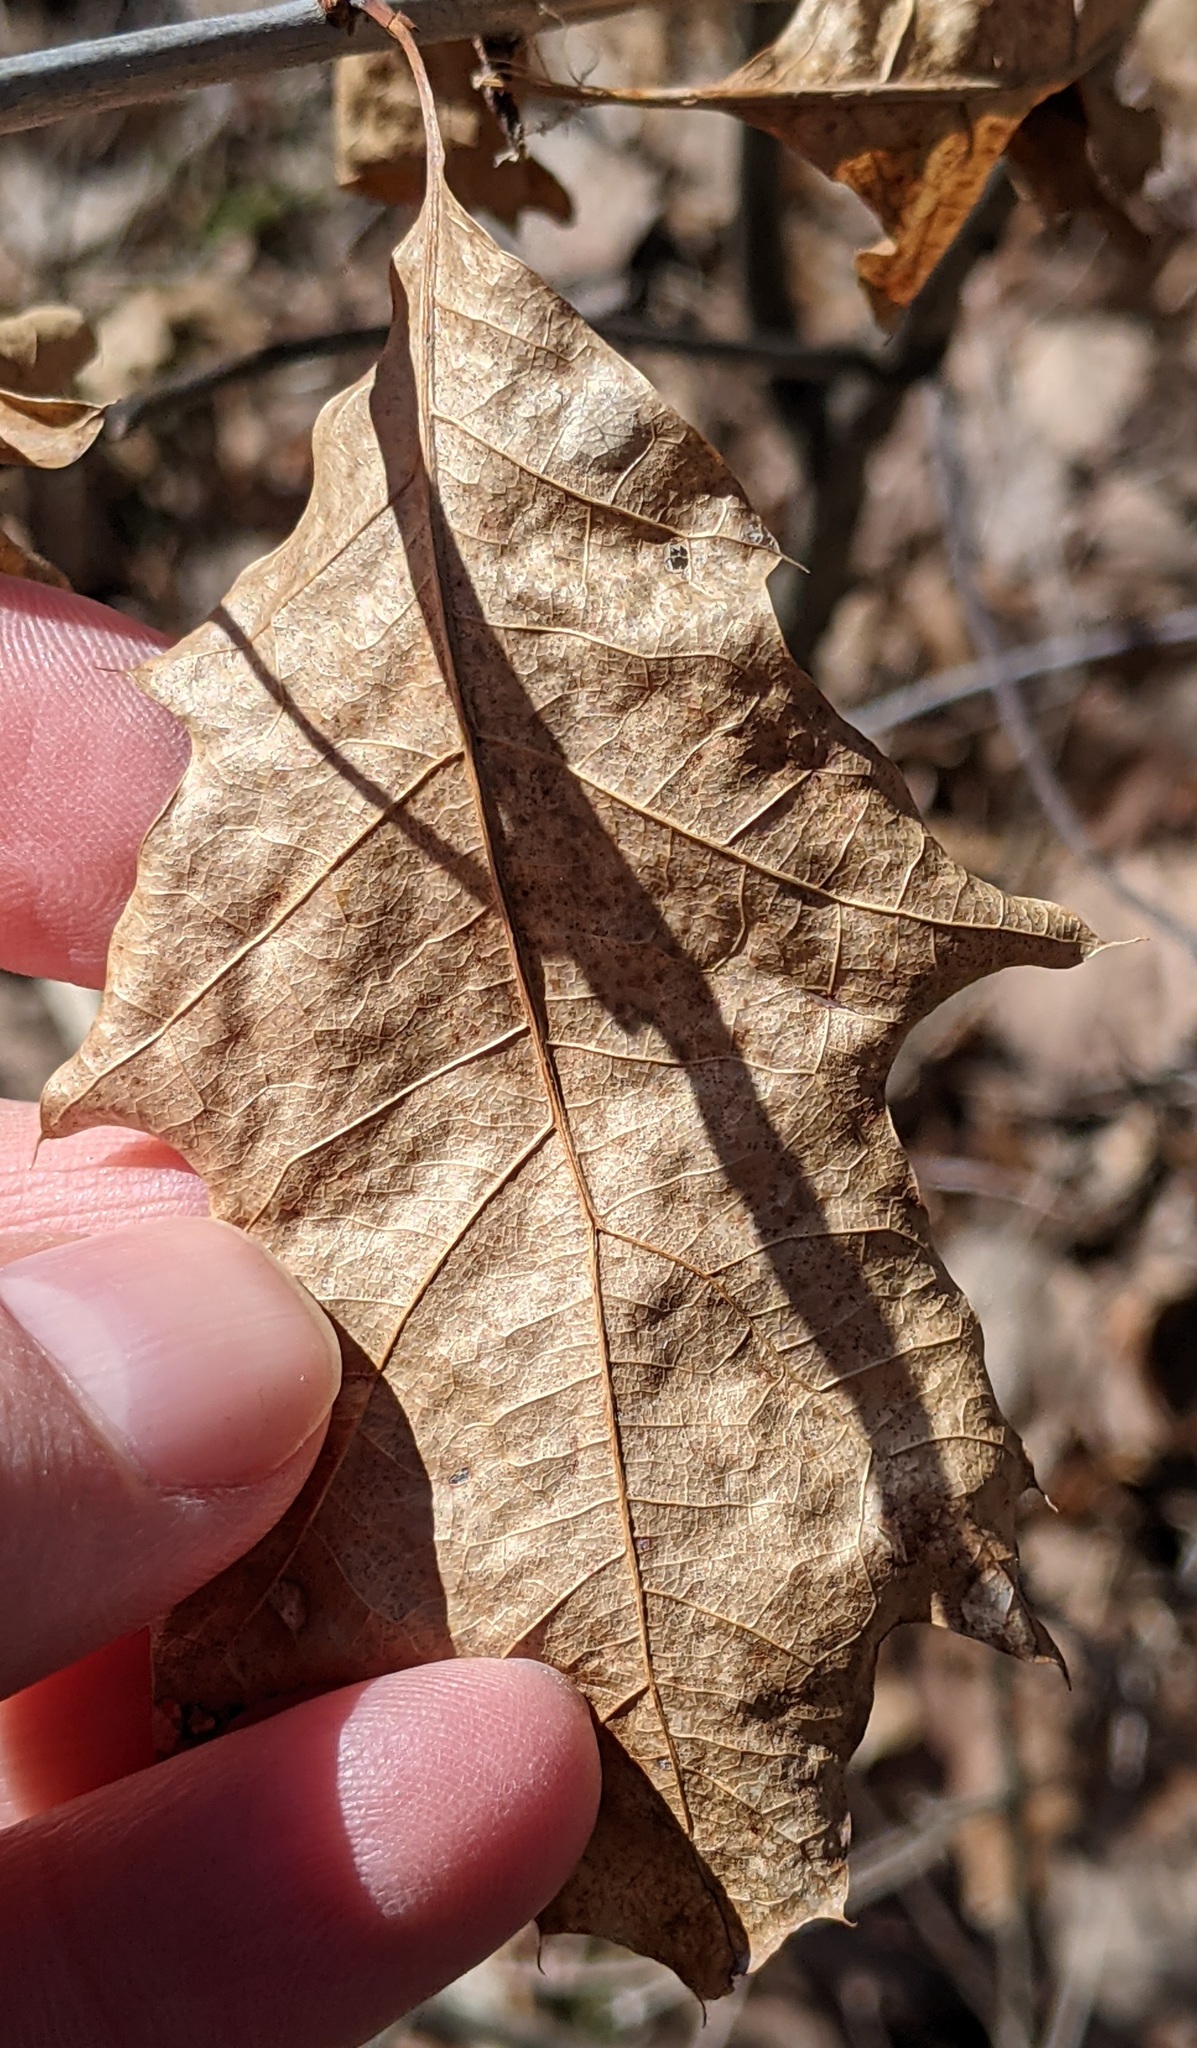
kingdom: Plantae
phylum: Tracheophyta
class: Magnoliopsida
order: Fagales
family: Fagaceae
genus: Quercus
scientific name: Quercus rubra
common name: Red oak
